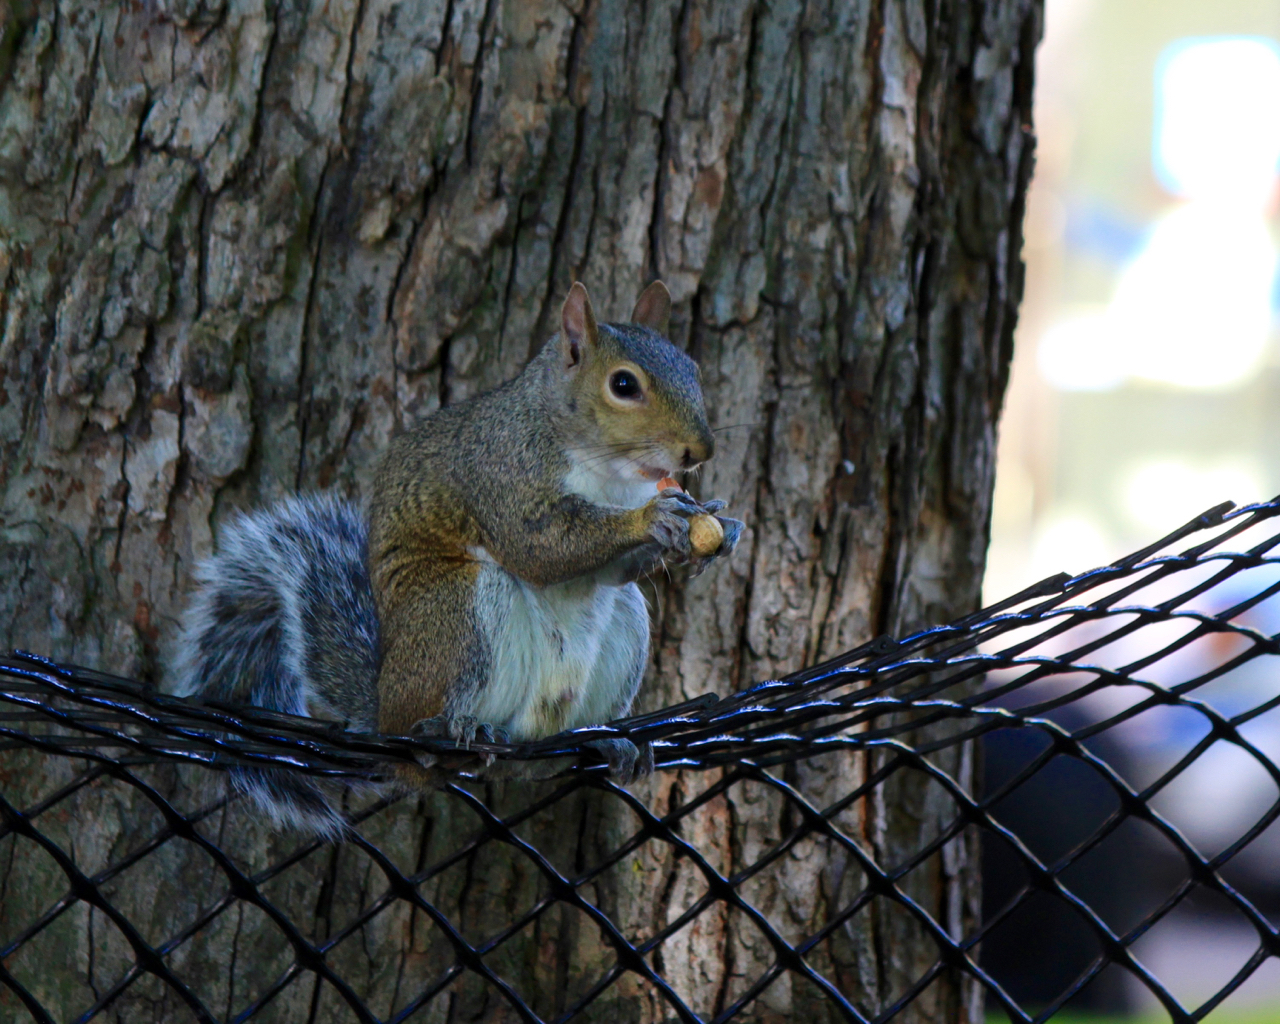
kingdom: Animalia
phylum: Chordata
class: Mammalia
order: Rodentia
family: Sciuridae
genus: Sciurus
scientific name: Sciurus carolinensis
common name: Eastern gray squirrel
